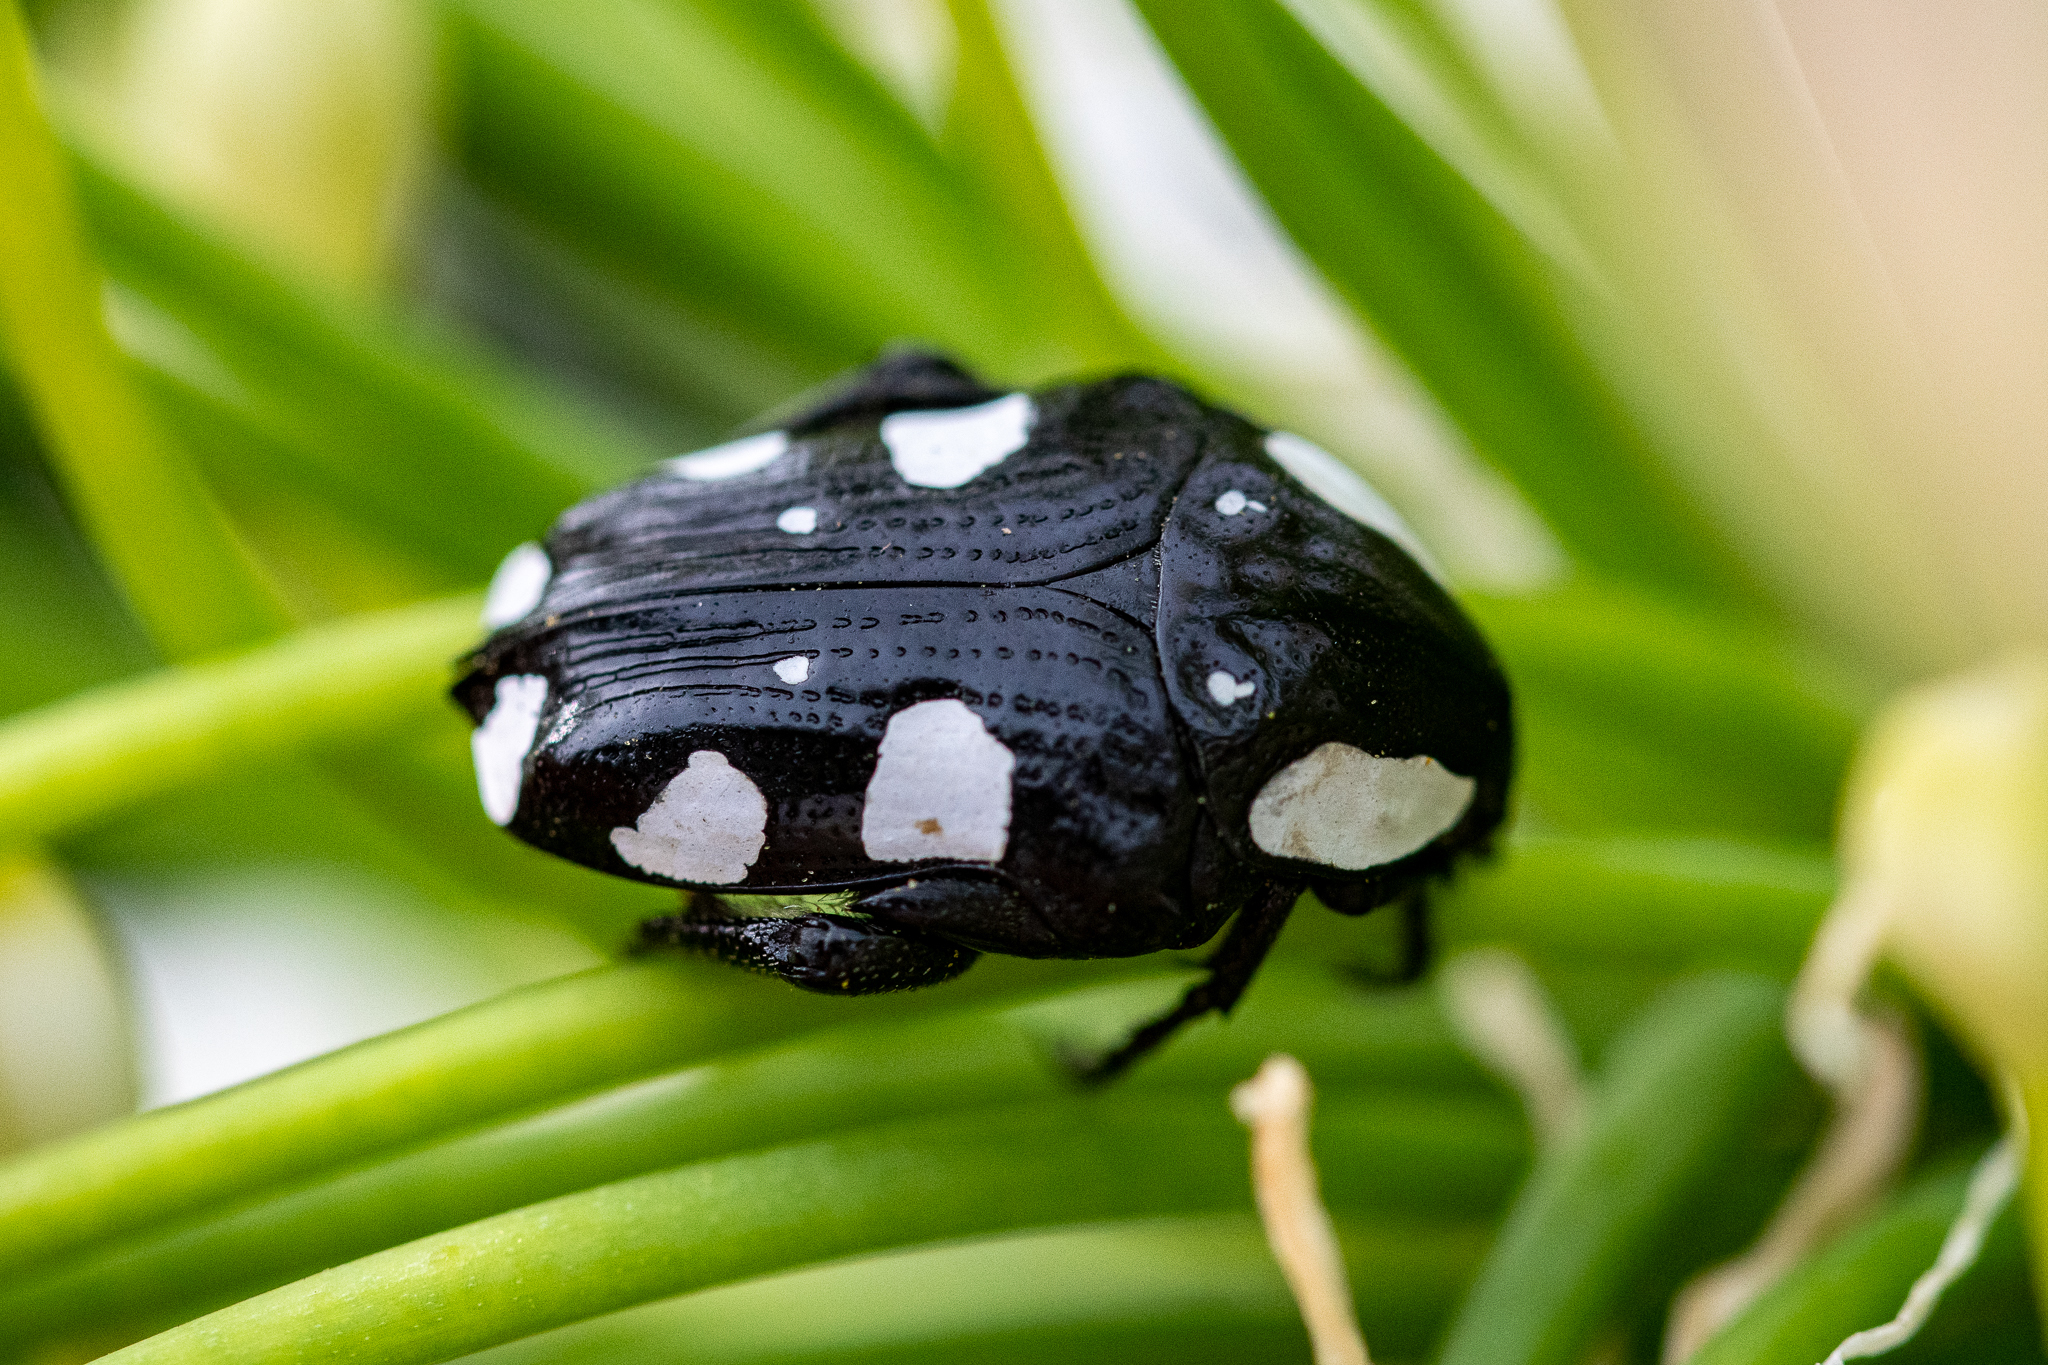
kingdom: Animalia
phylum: Arthropoda
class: Insecta
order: Coleoptera
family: Scarabaeidae
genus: Mausoleopsis
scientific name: Mausoleopsis amabilis
